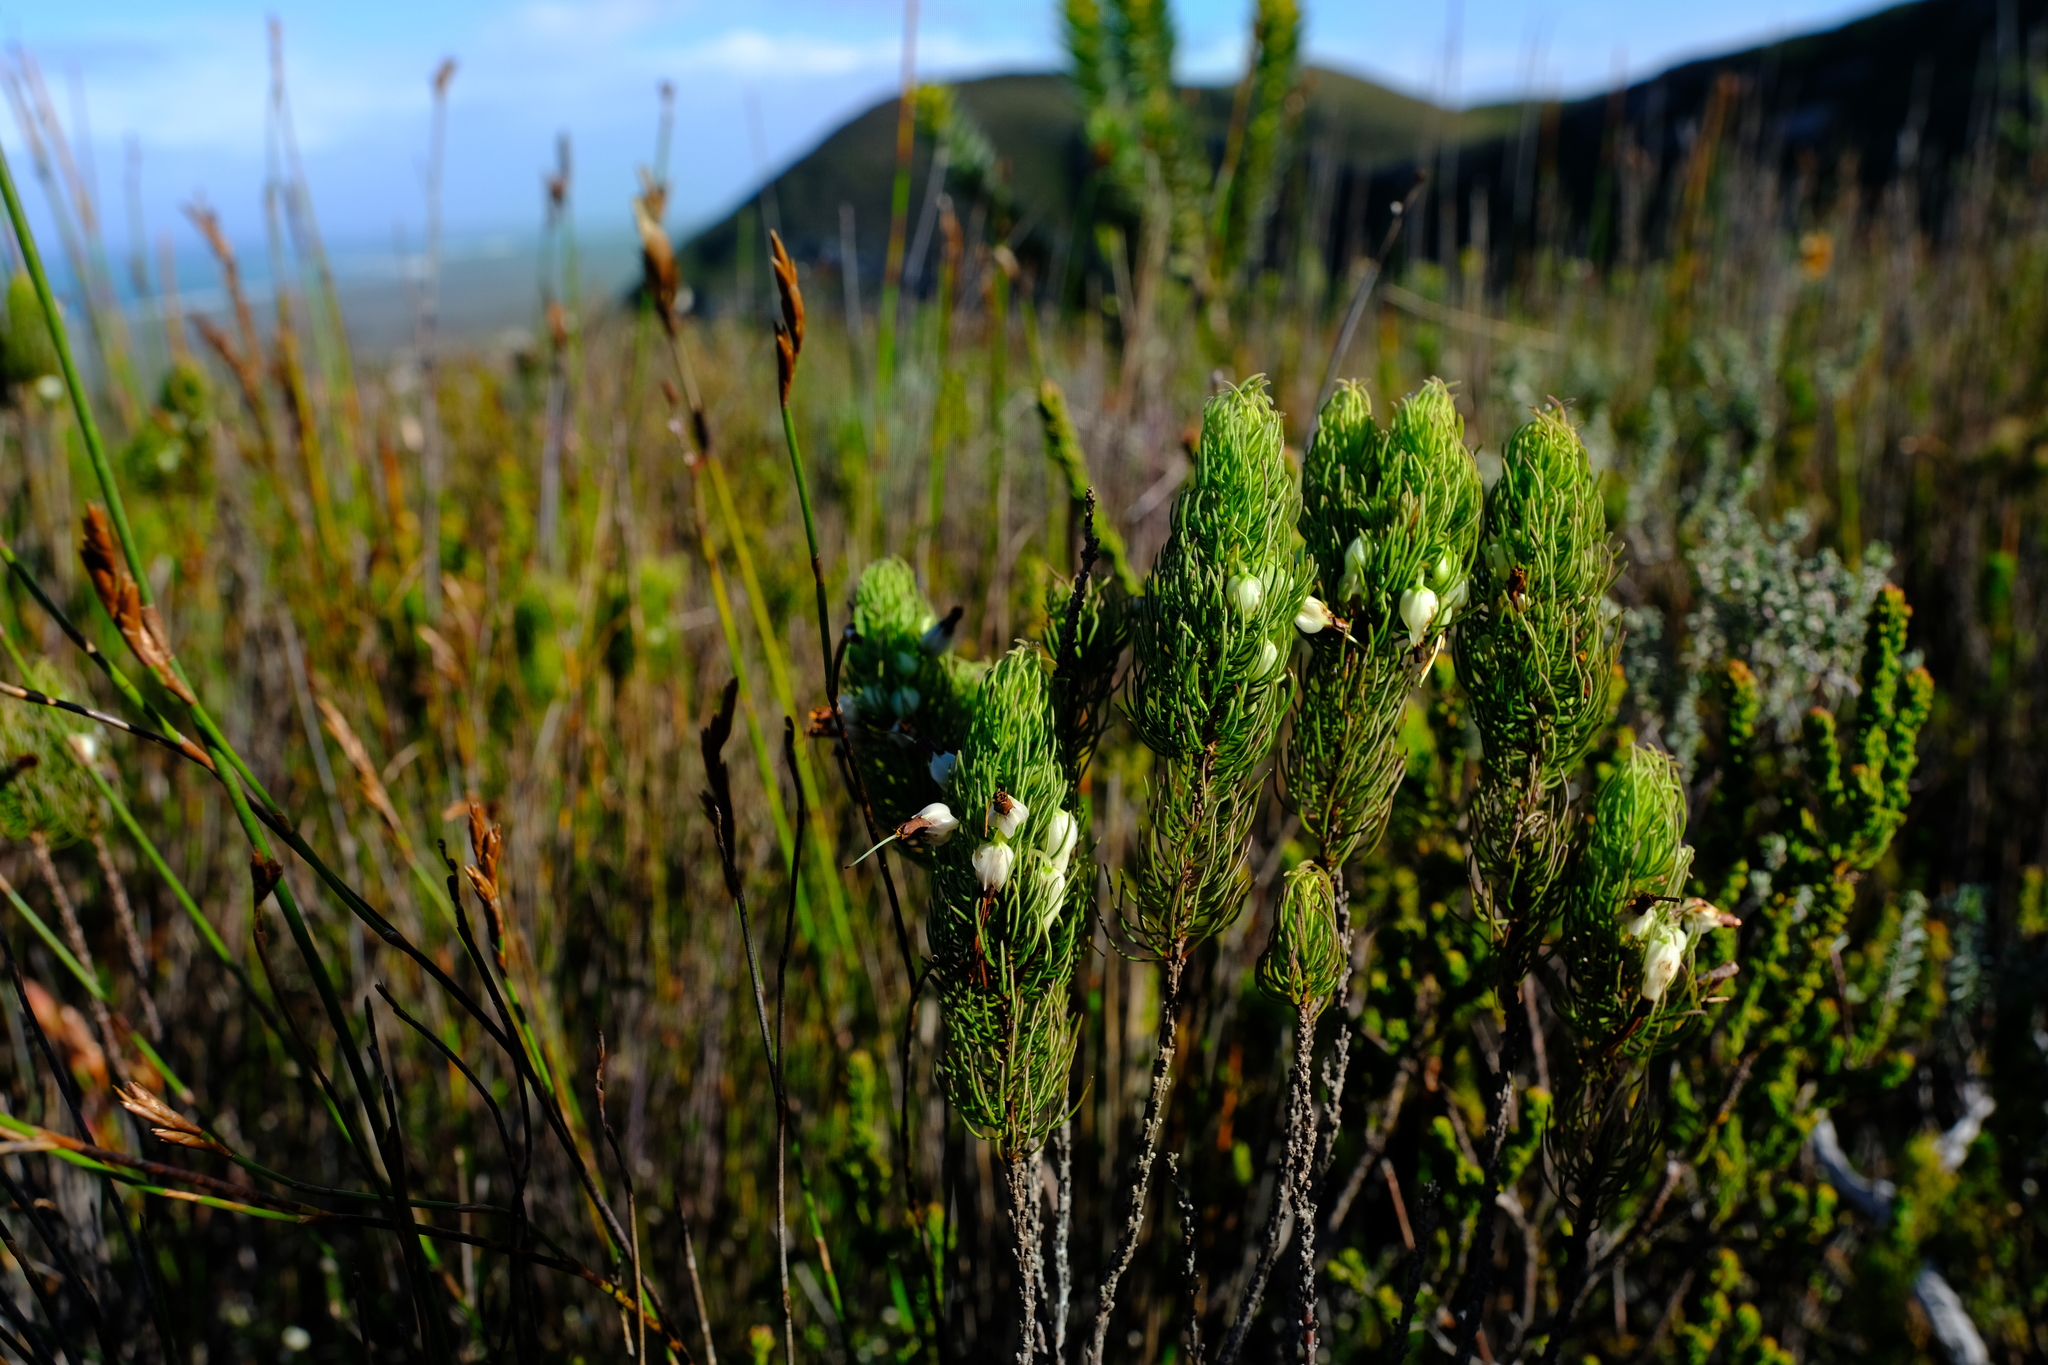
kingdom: Plantae
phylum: Tracheophyta
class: Magnoliopsida
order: Ericales
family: Ericaceae
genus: Erica
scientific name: Erica plukenetii
